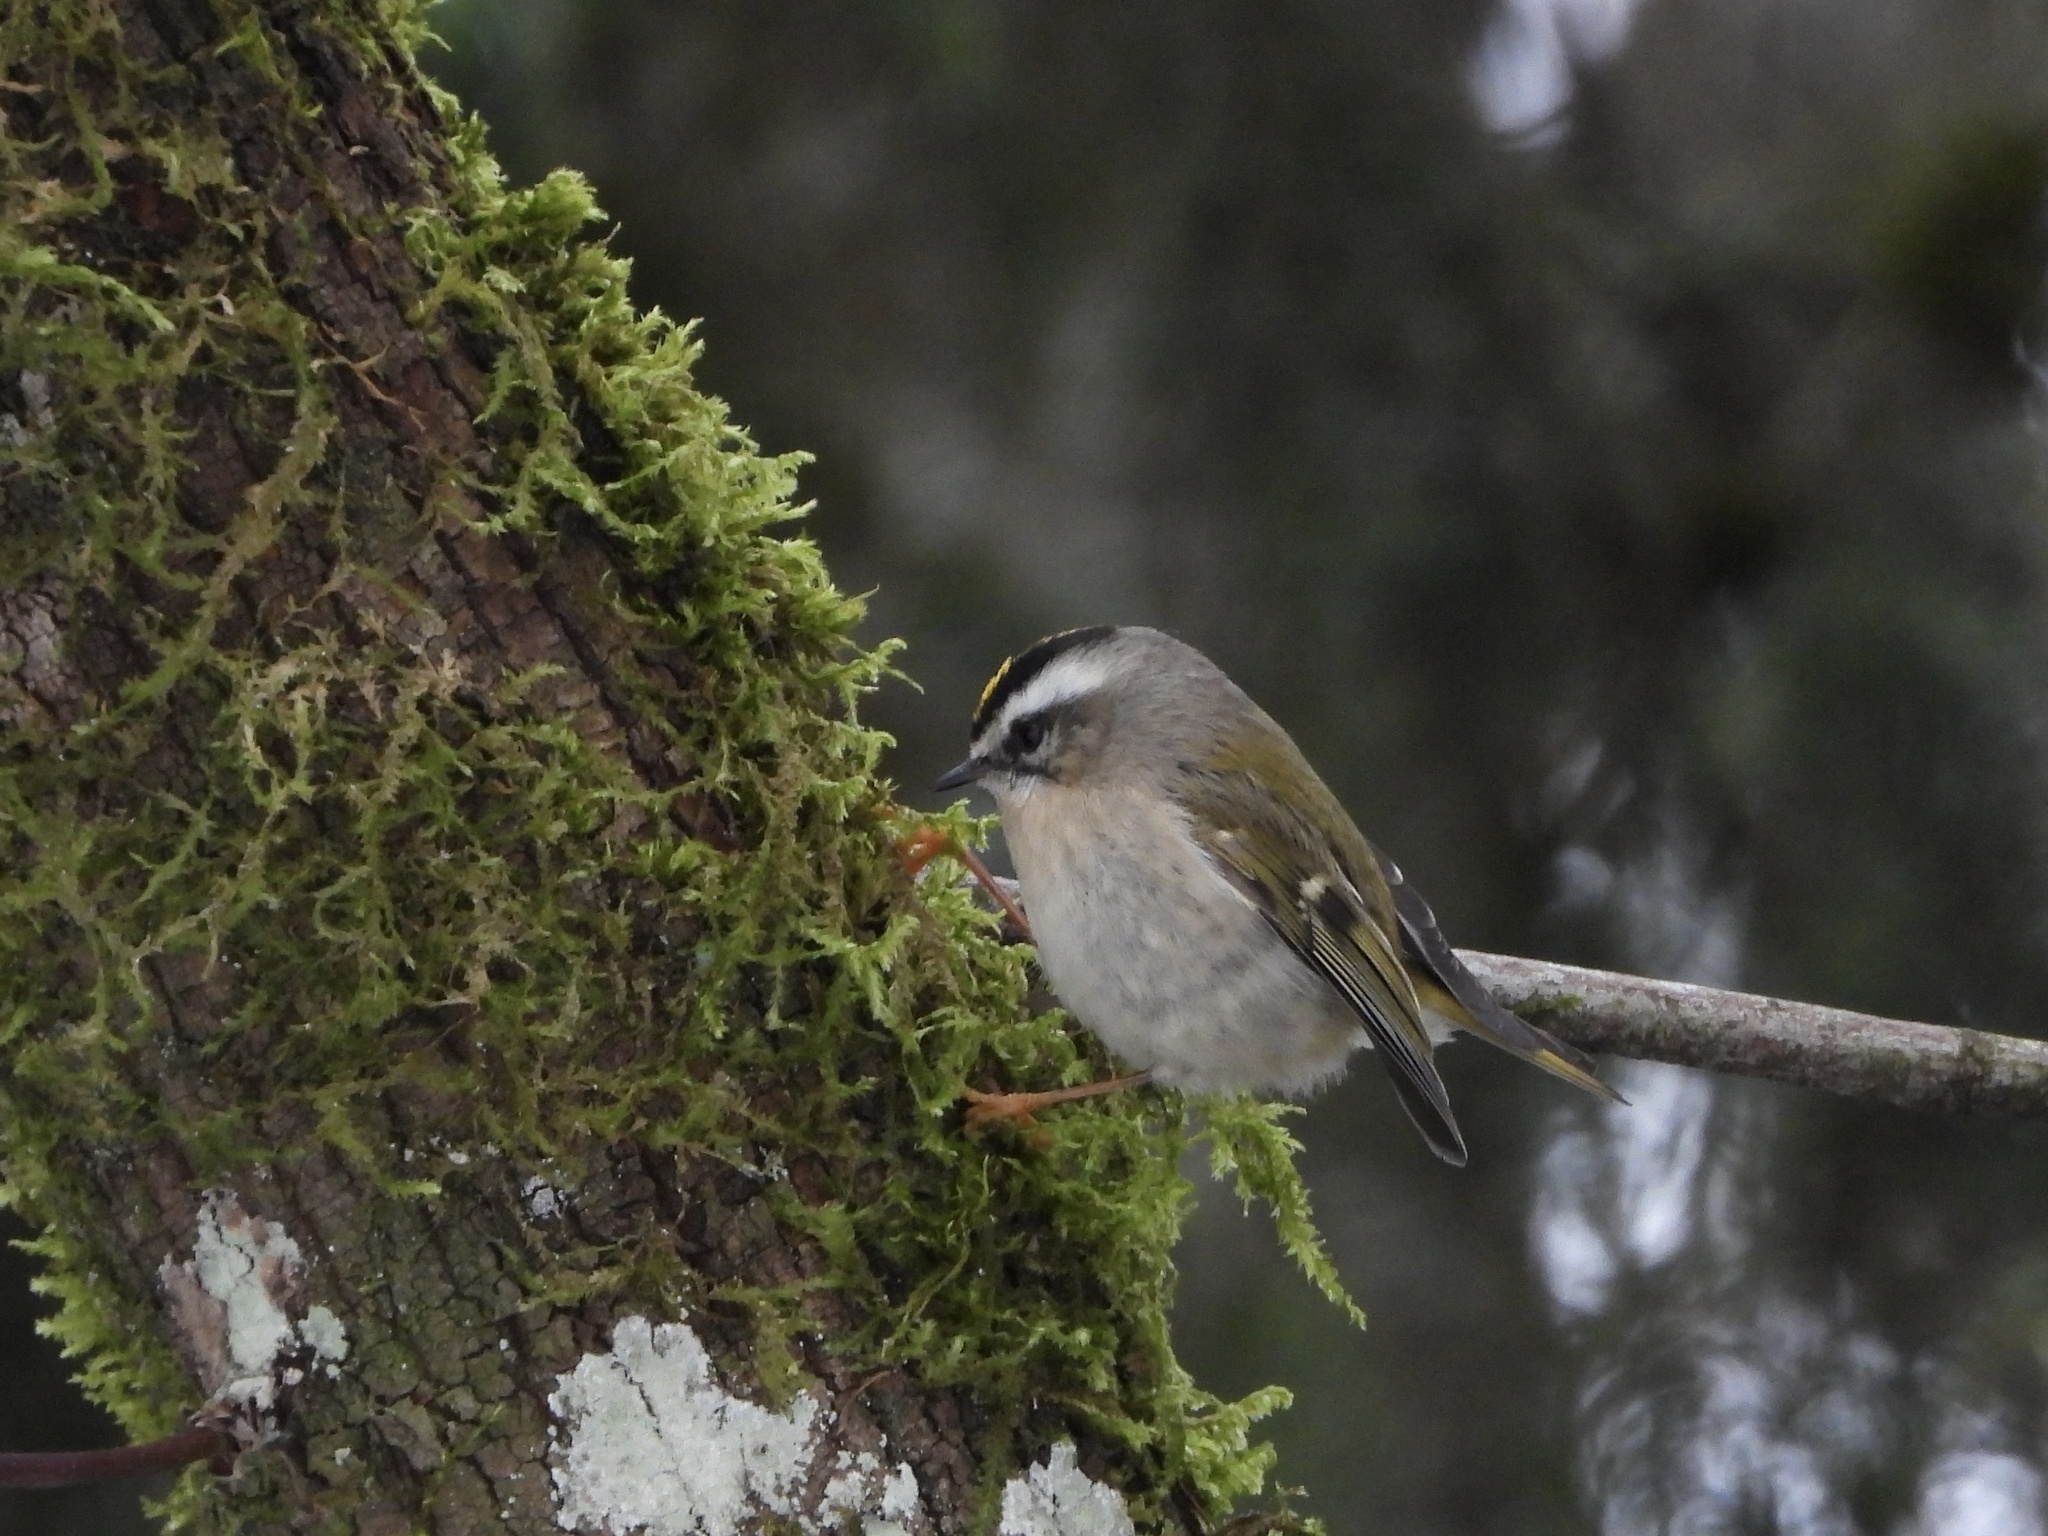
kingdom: Animalia
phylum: Chordata
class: Aves
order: Passeriformes
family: Regulidae
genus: Regulus
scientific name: Regulus satrapa
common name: Golden-crowned kinglet
